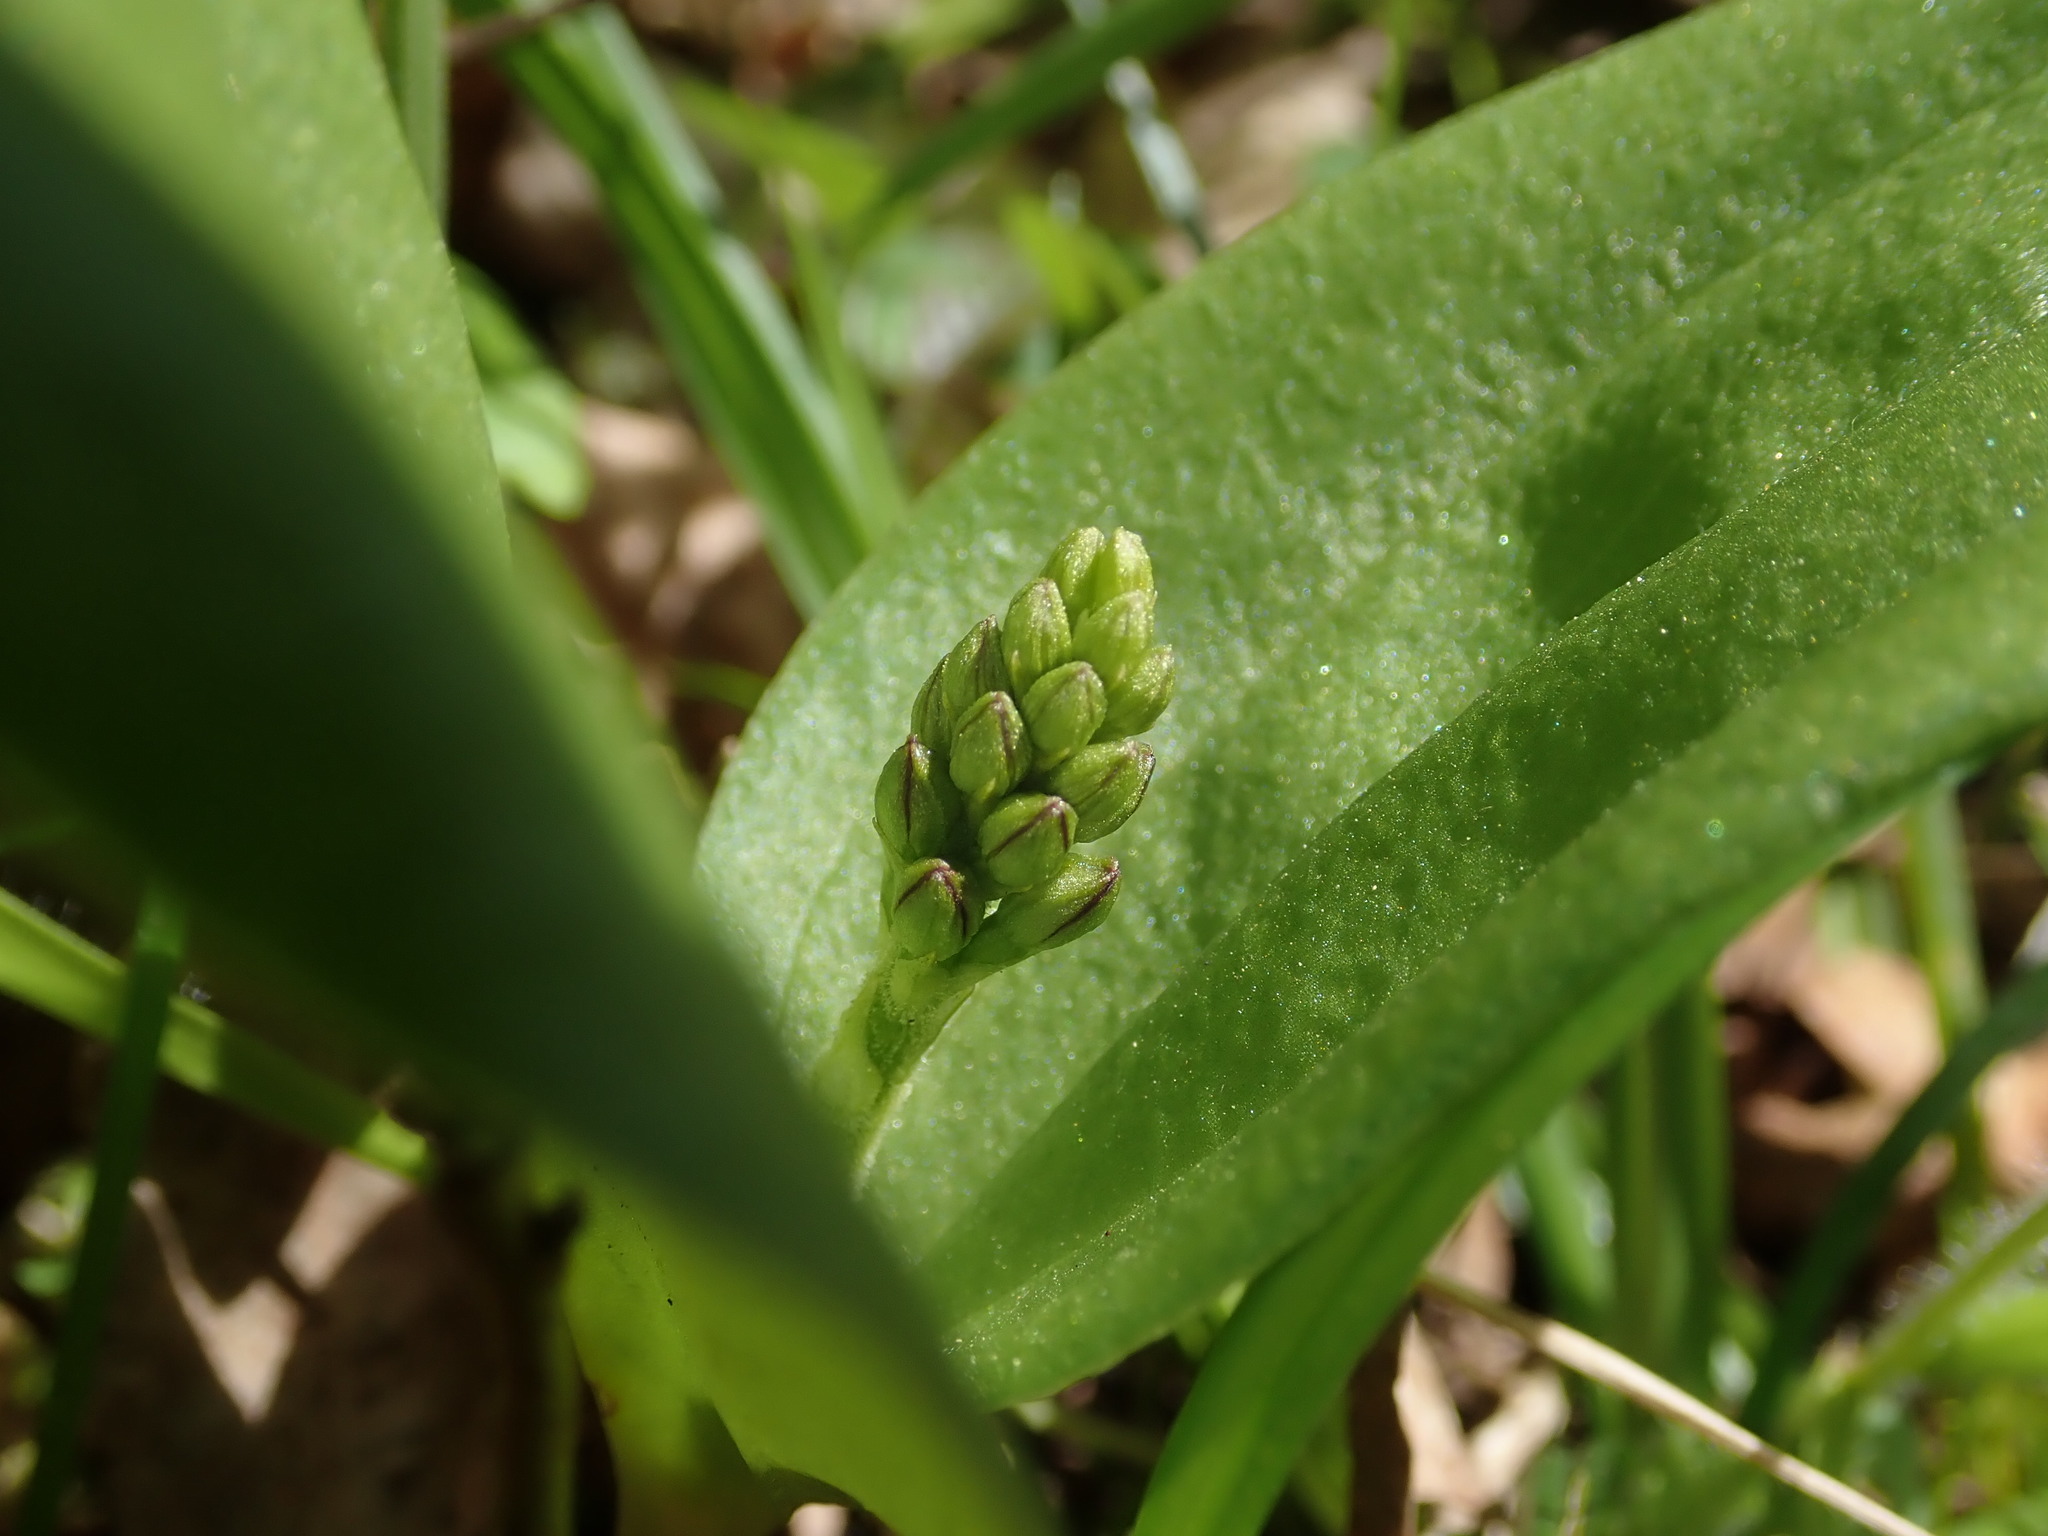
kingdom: Plantae
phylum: Tracheophyta
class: Liliopsida
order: Asparagales
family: Orchidaceae
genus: Neottia
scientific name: Neottia ovata
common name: Common twayblade
